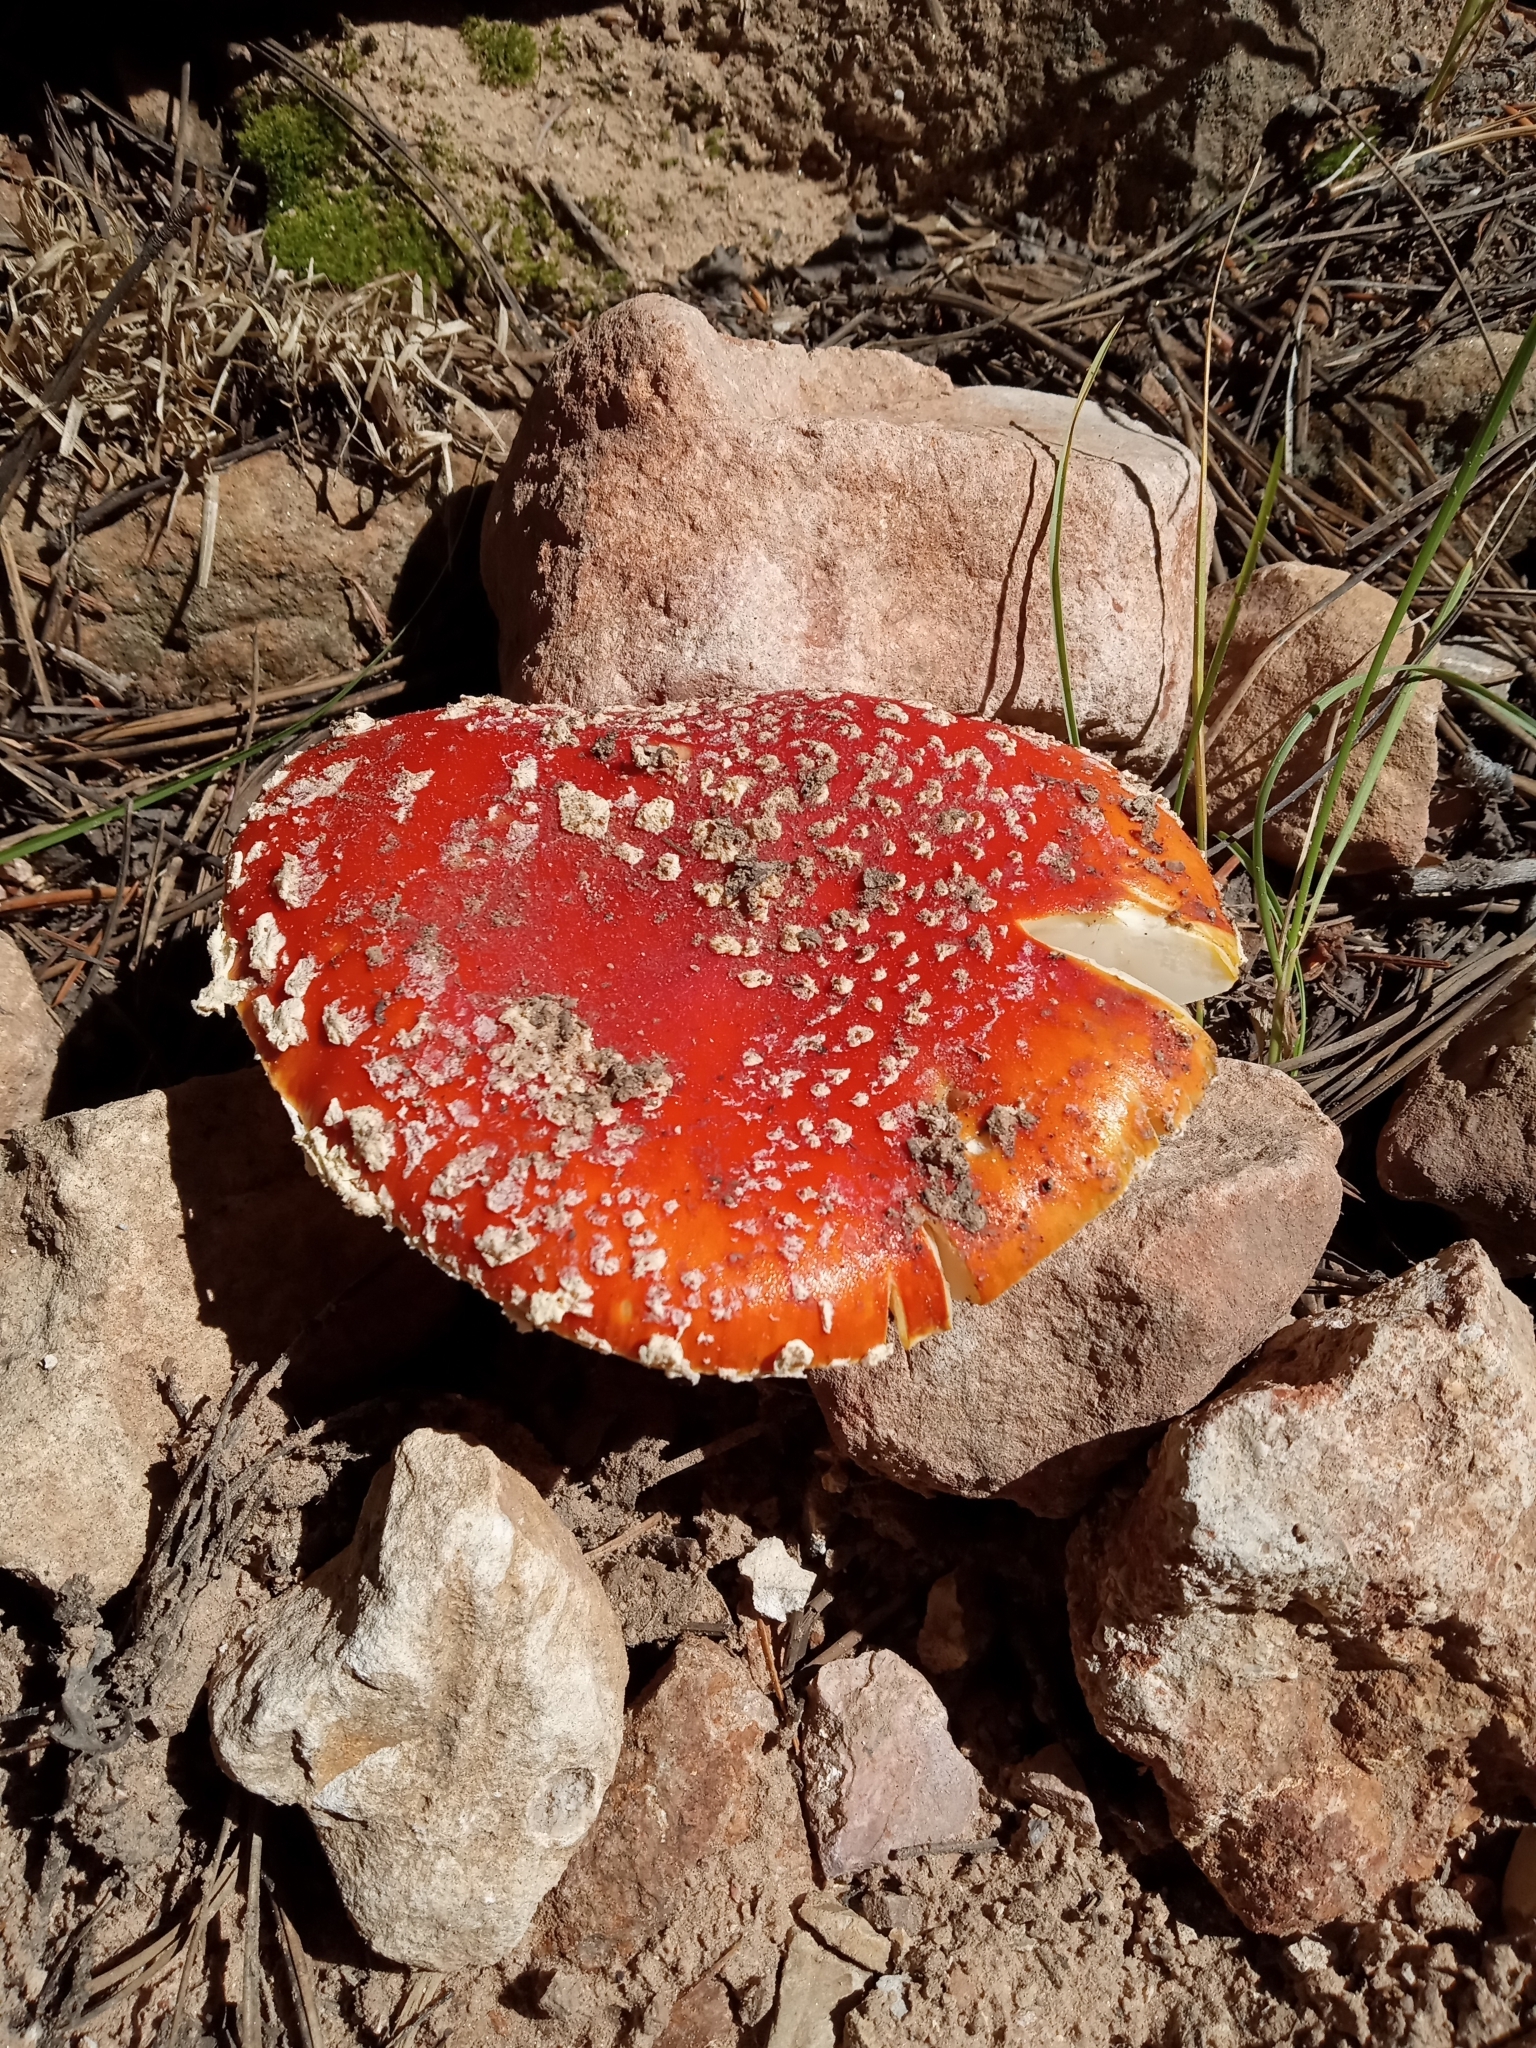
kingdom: Fungi
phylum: Basidiomycota
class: Agaricomycetes
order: Agaricales
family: Amanitaceae
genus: Amanita
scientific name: Amanita muscaria
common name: Fly agaric
